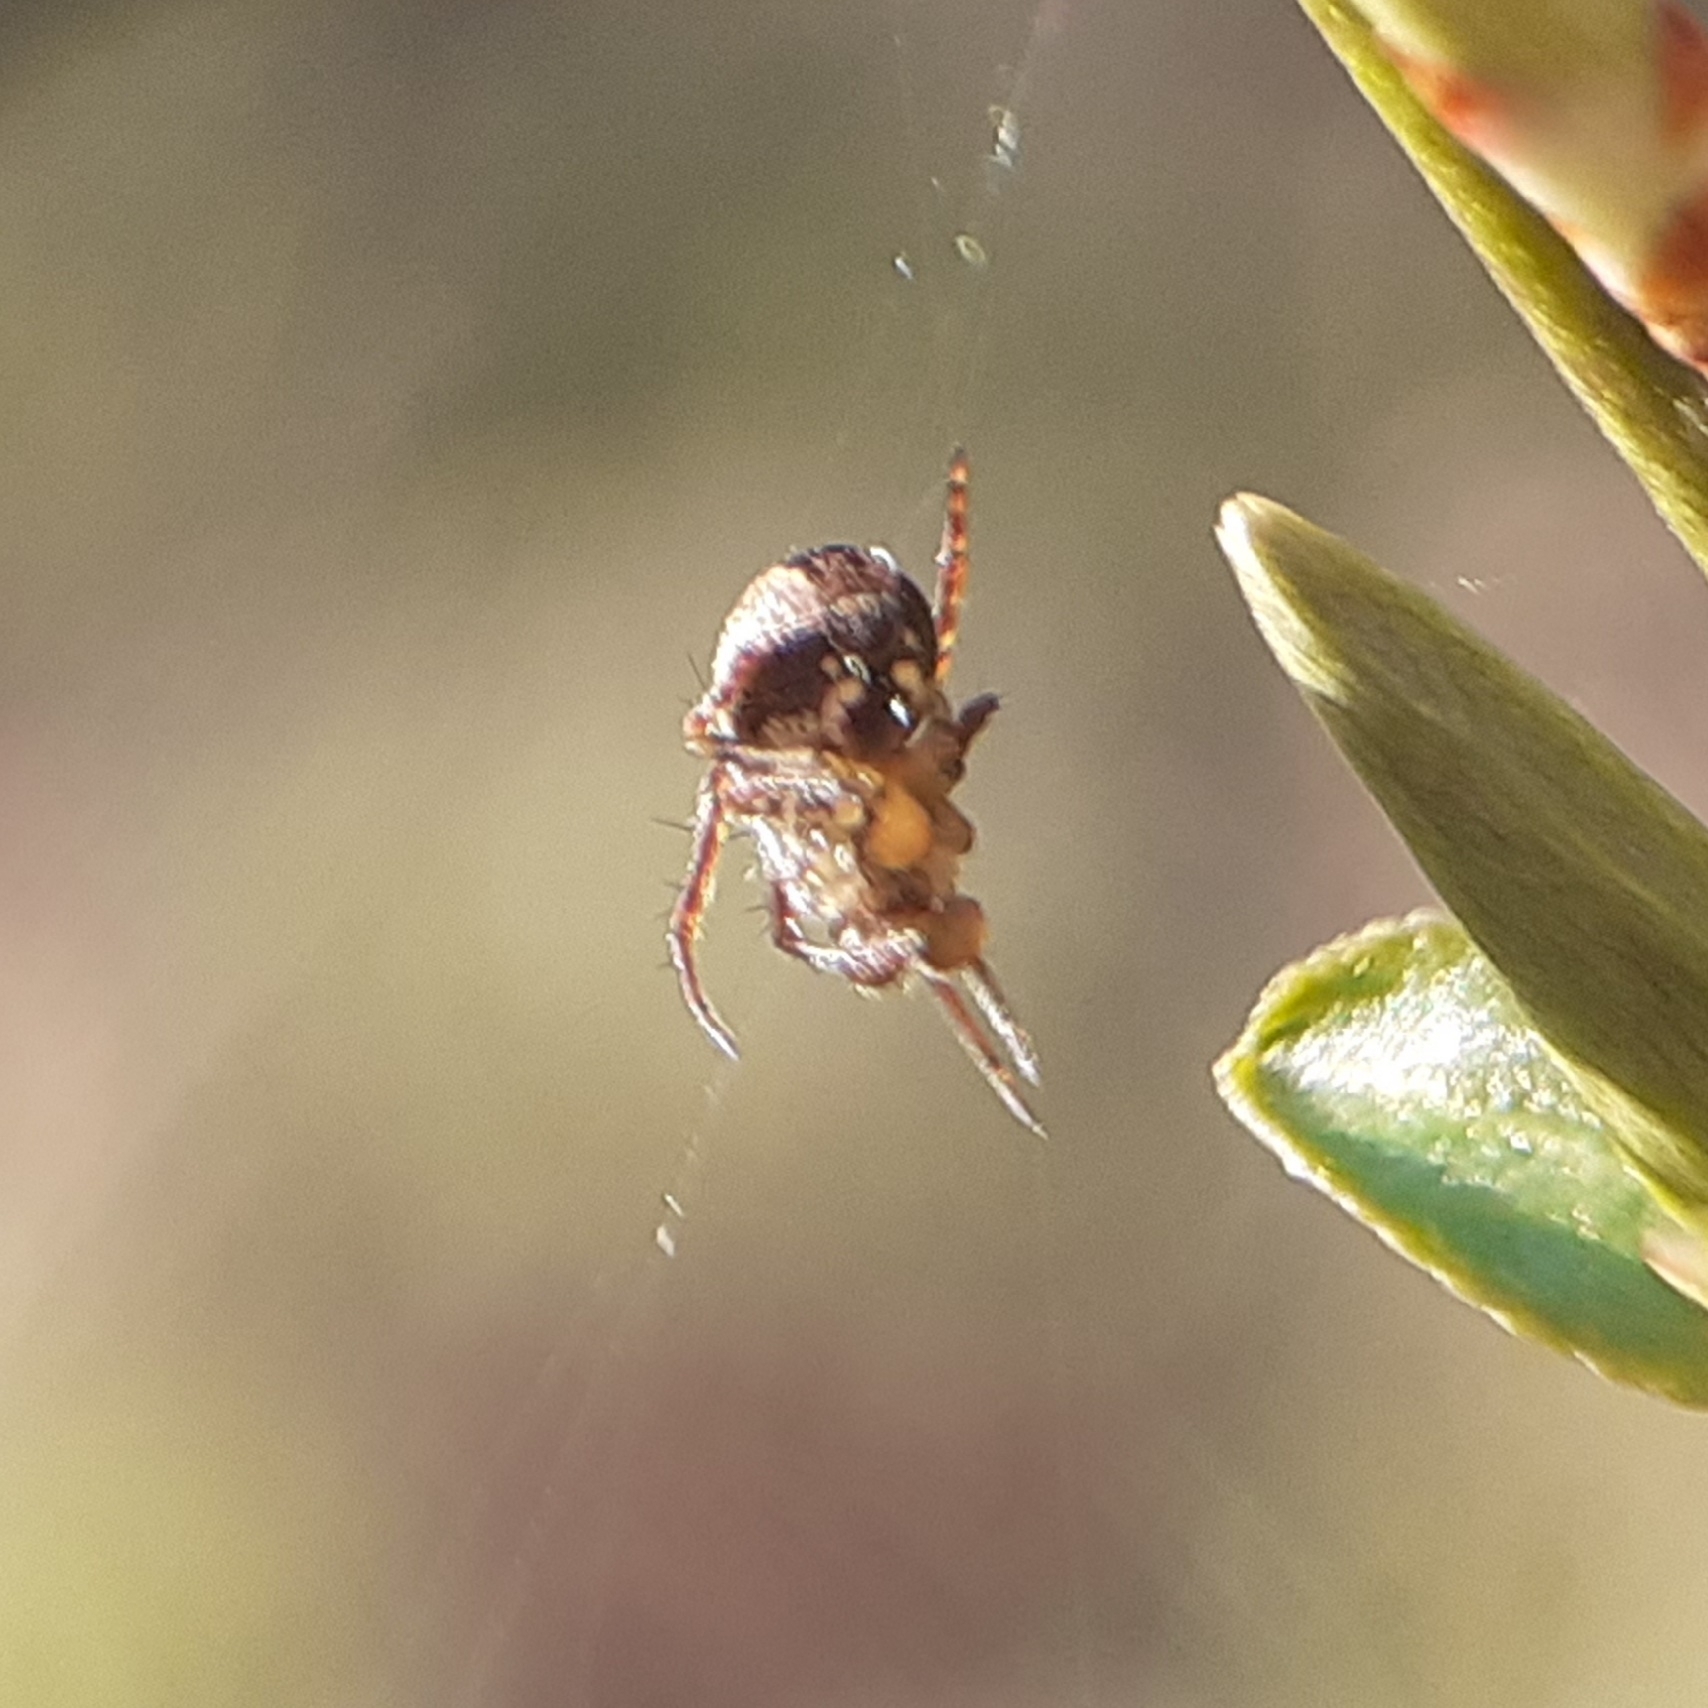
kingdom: Animalia
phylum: Arthropoda
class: Arachnida
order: Araneae
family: Araneidae
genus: Zilla
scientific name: Zilla diodia
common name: Zilla diodia
